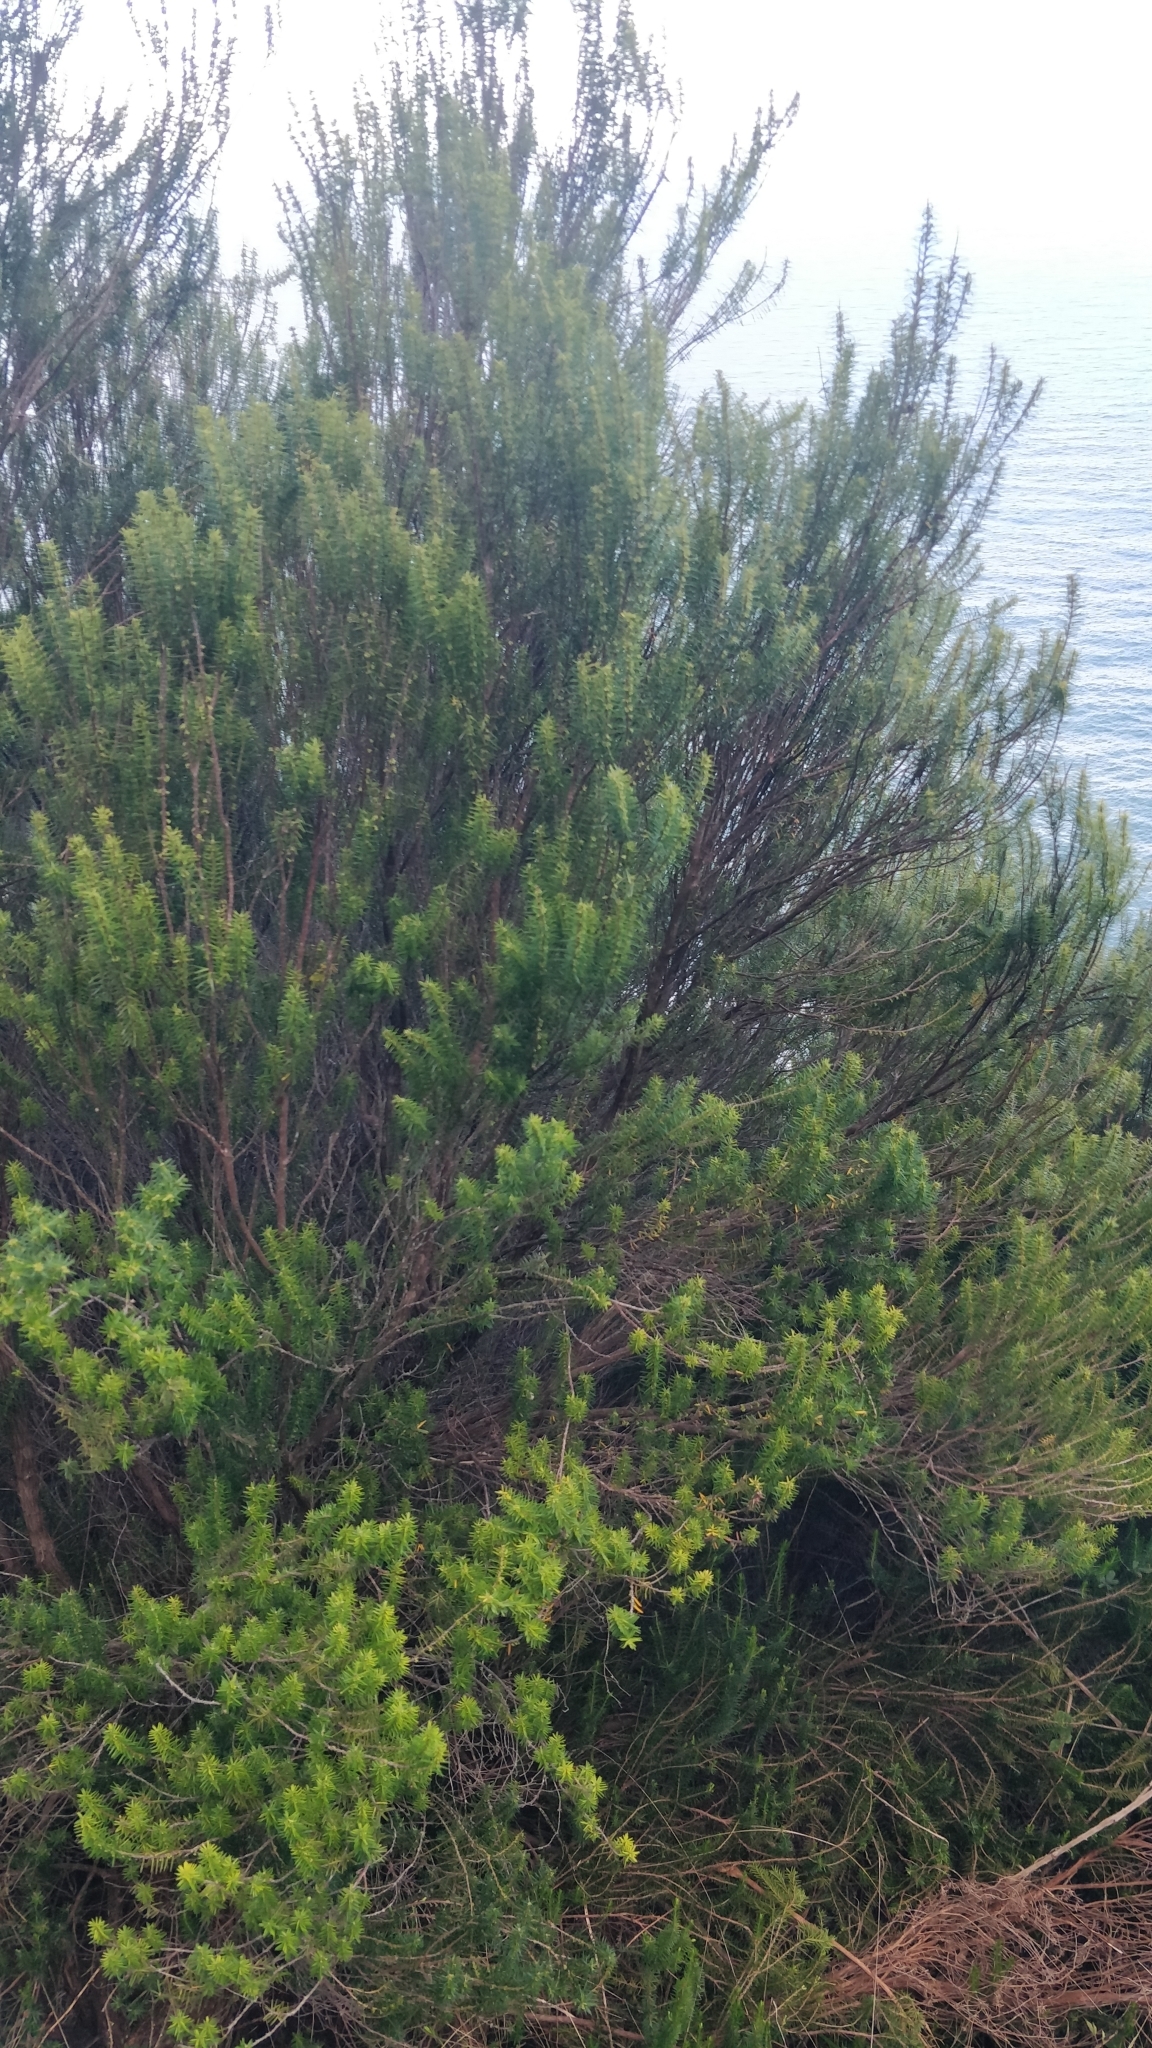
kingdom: Plantae
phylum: Tracheophyta
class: Magnoliopsida
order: Ericales
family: Ericaceae
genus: Erica
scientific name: Erica platycodon
